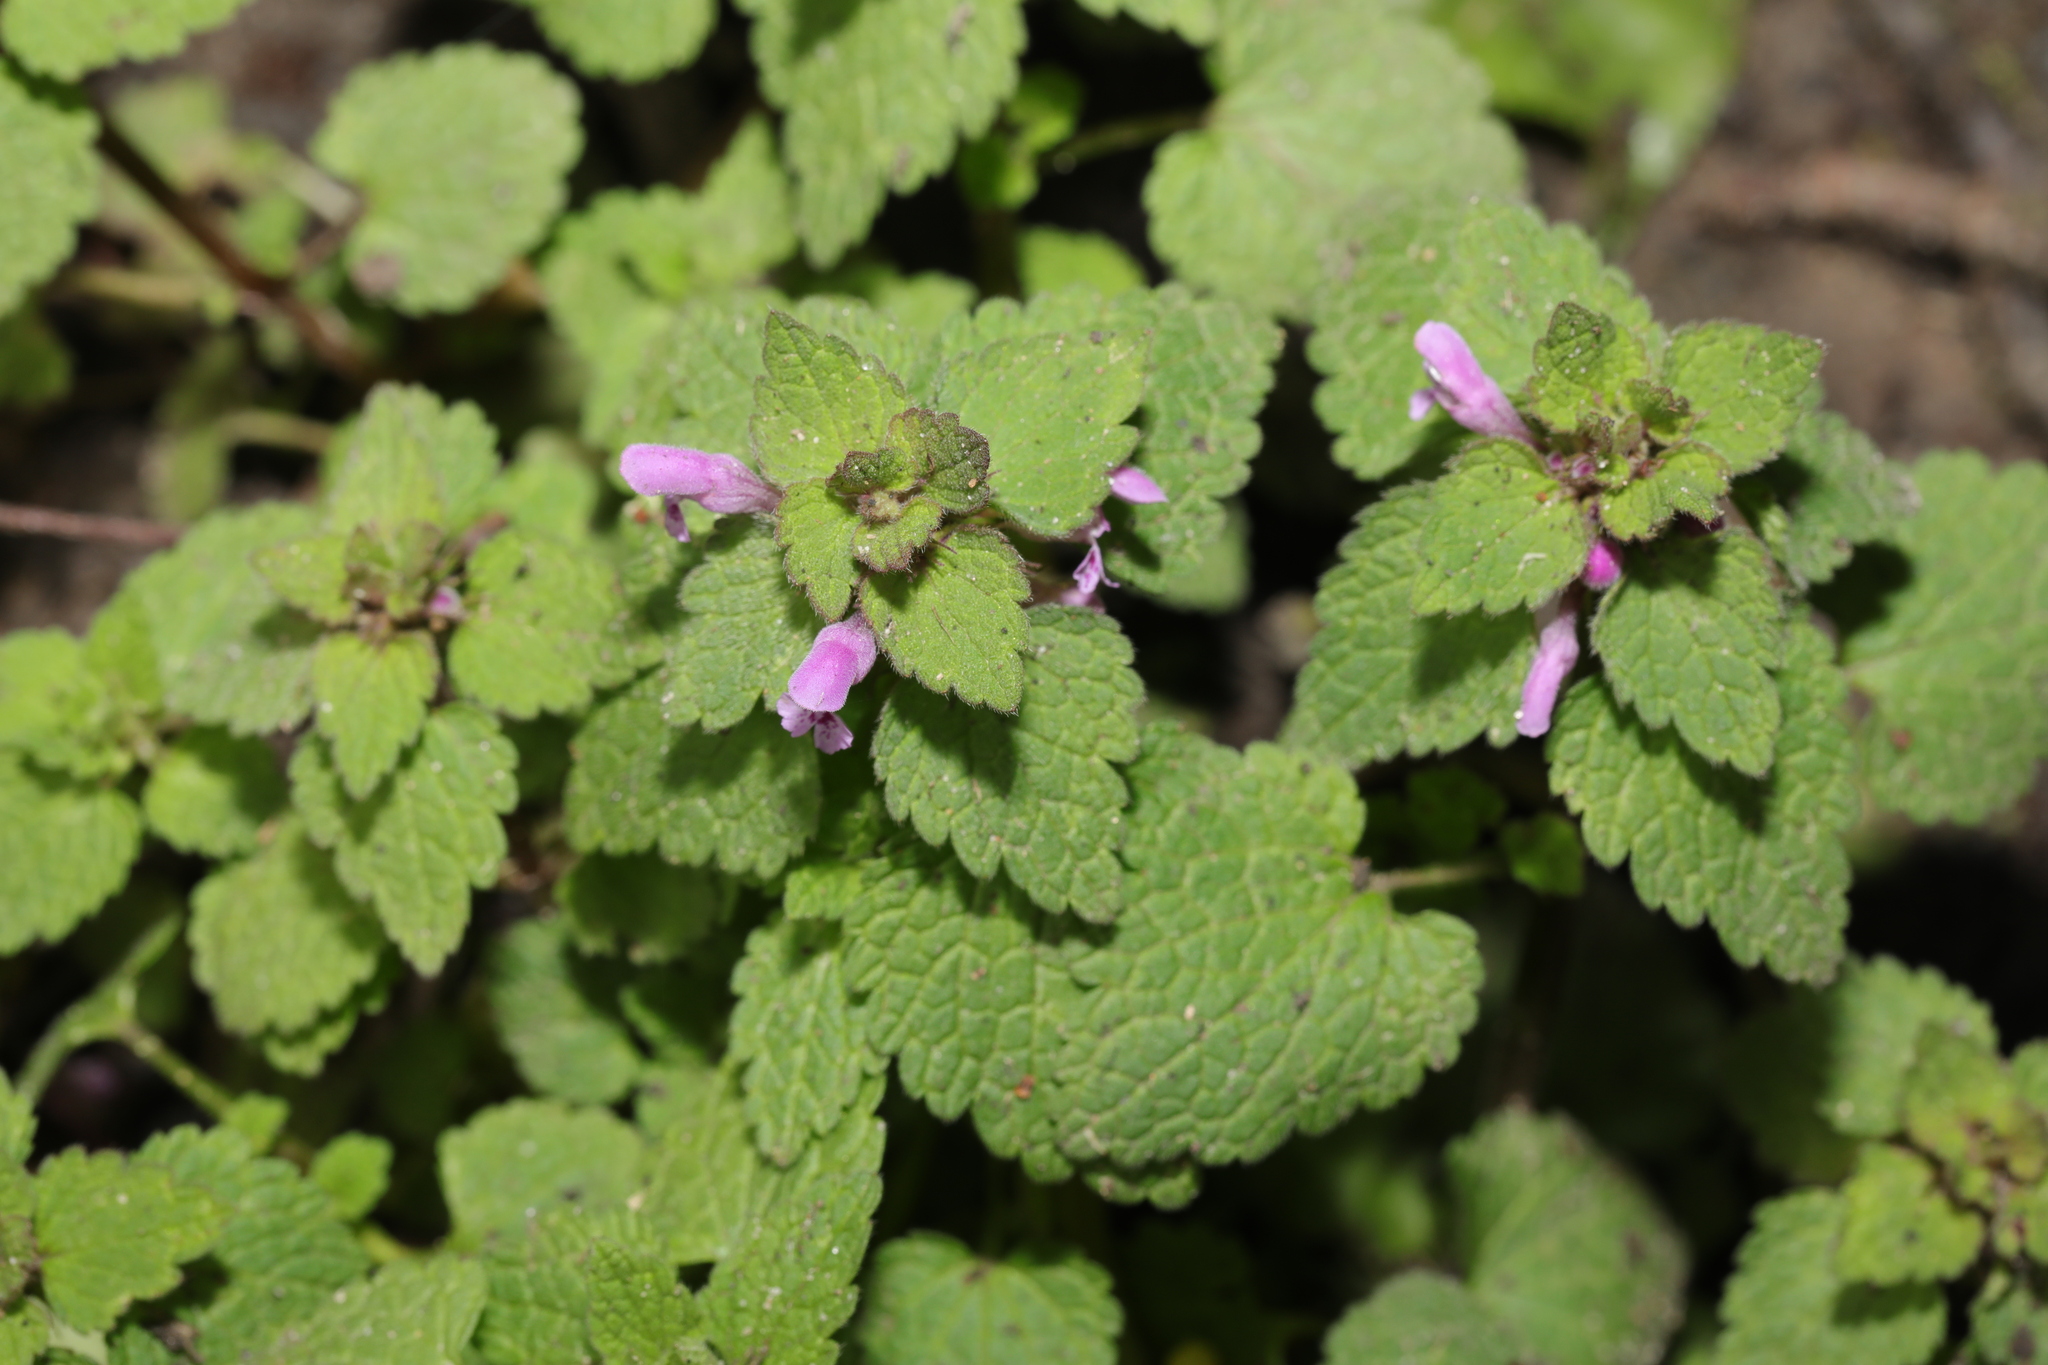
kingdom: Plantae
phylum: Tracheophyta
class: Magnoliopsida
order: Lamiales
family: Lamiaceae
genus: Lamium
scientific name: Lamium purpureum
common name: Red dead-nettle
